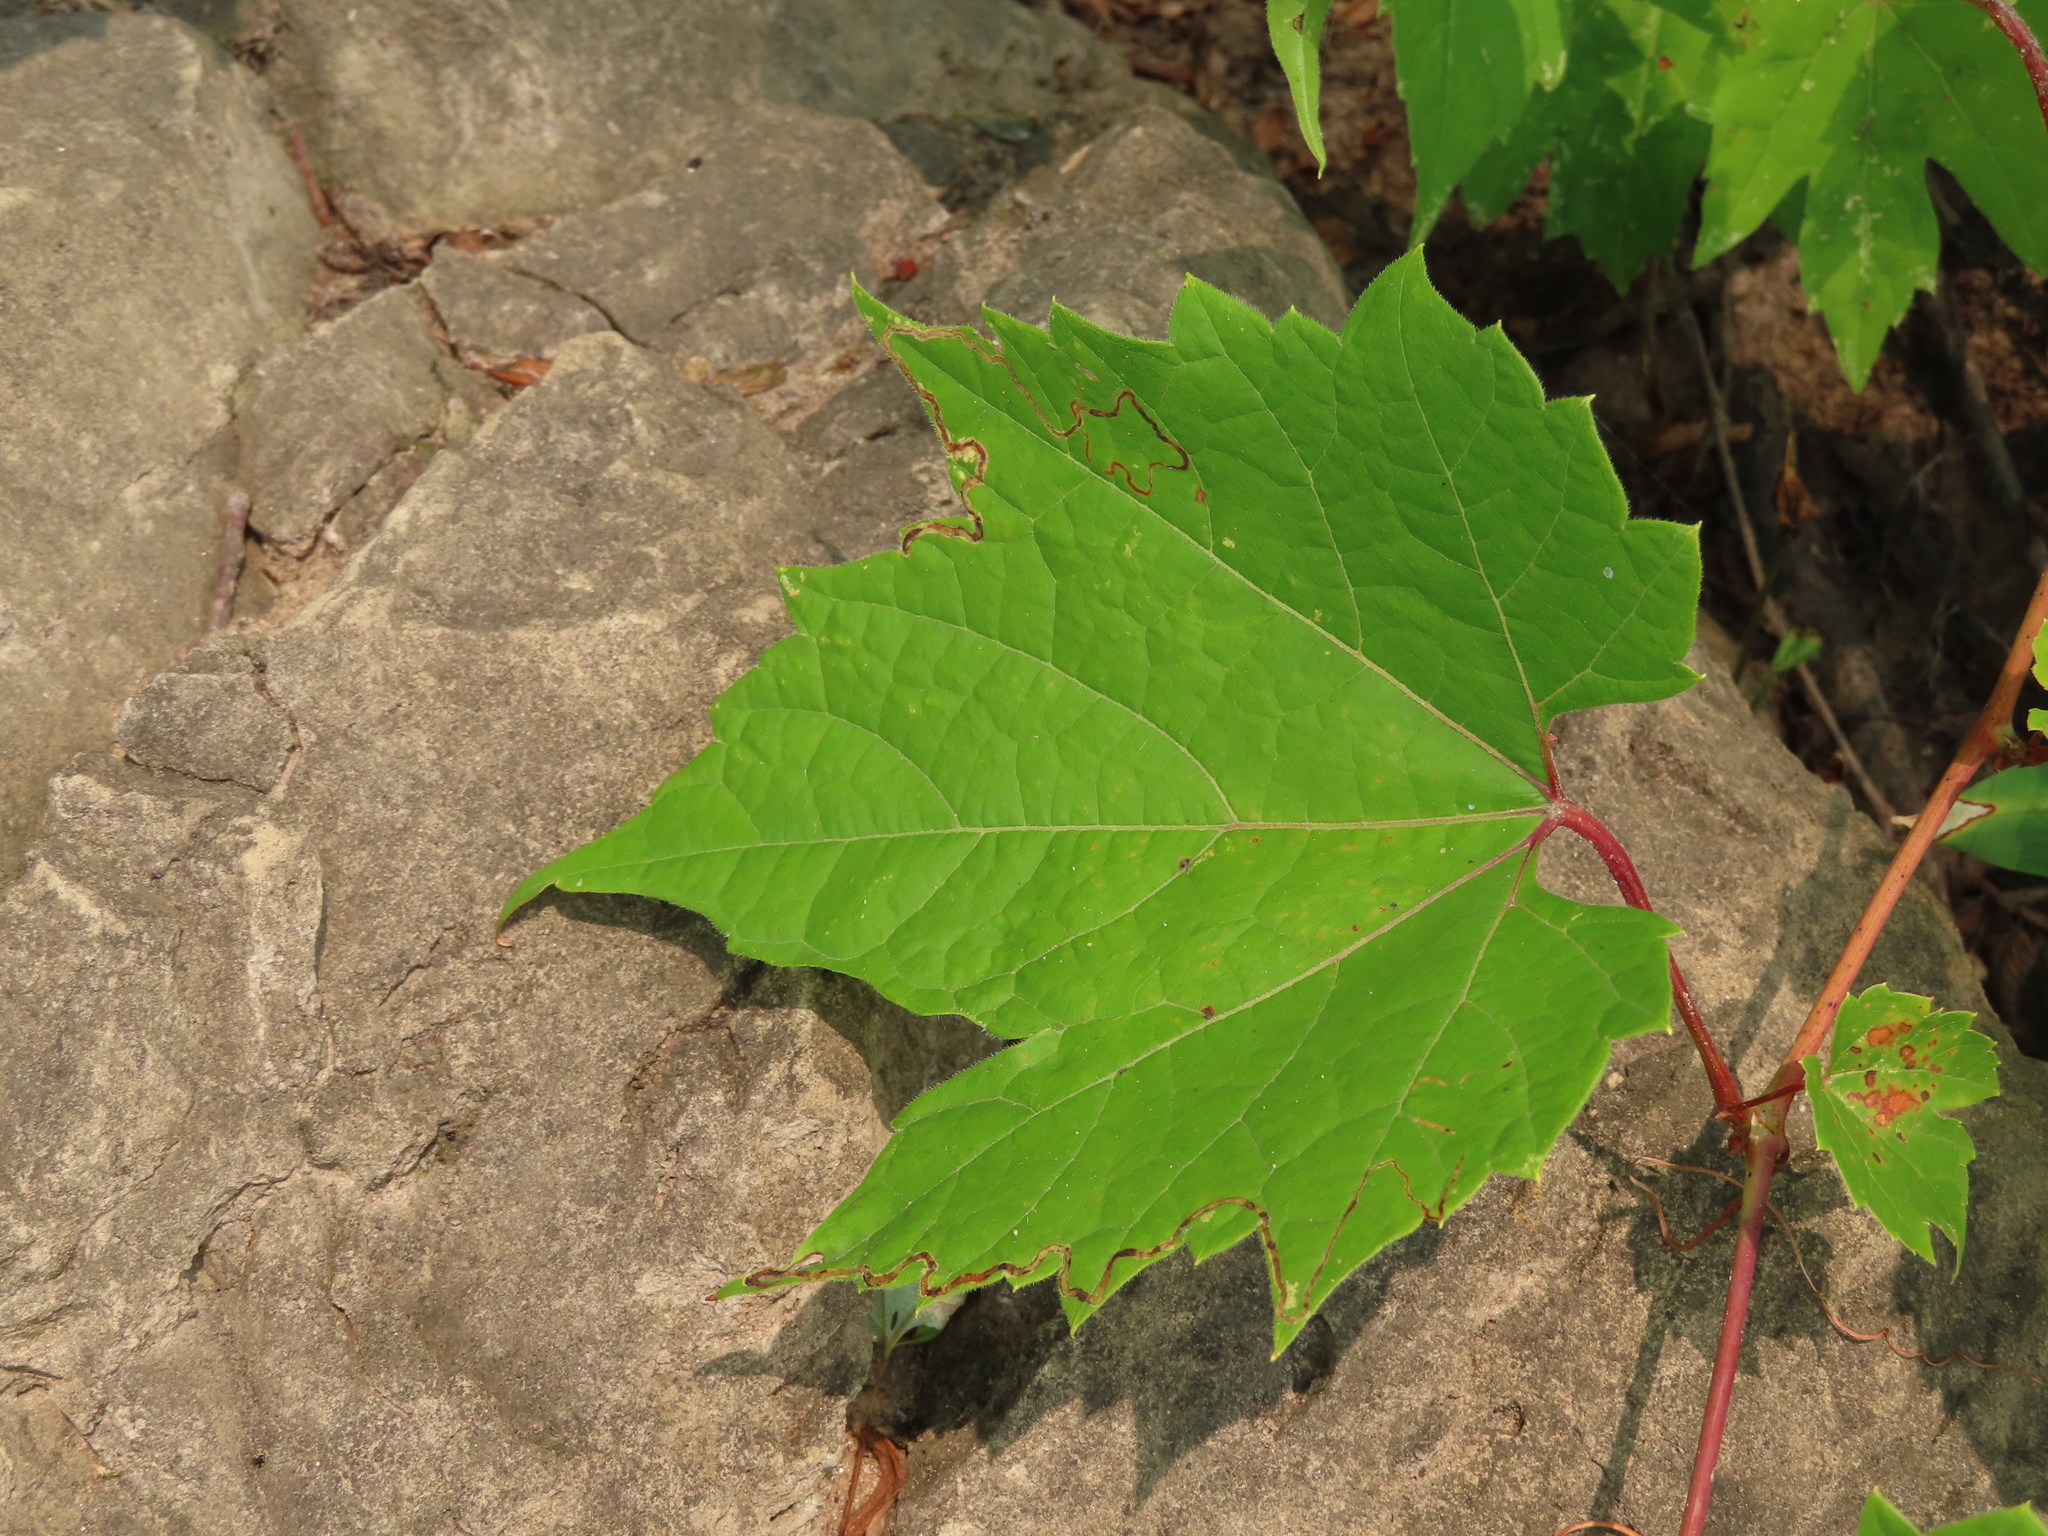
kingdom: Plantae
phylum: Tracheophyta
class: Magnoliopsida
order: Vitales
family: Vitaceae
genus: Vitis
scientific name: Vitis riparia
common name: Frost grape
